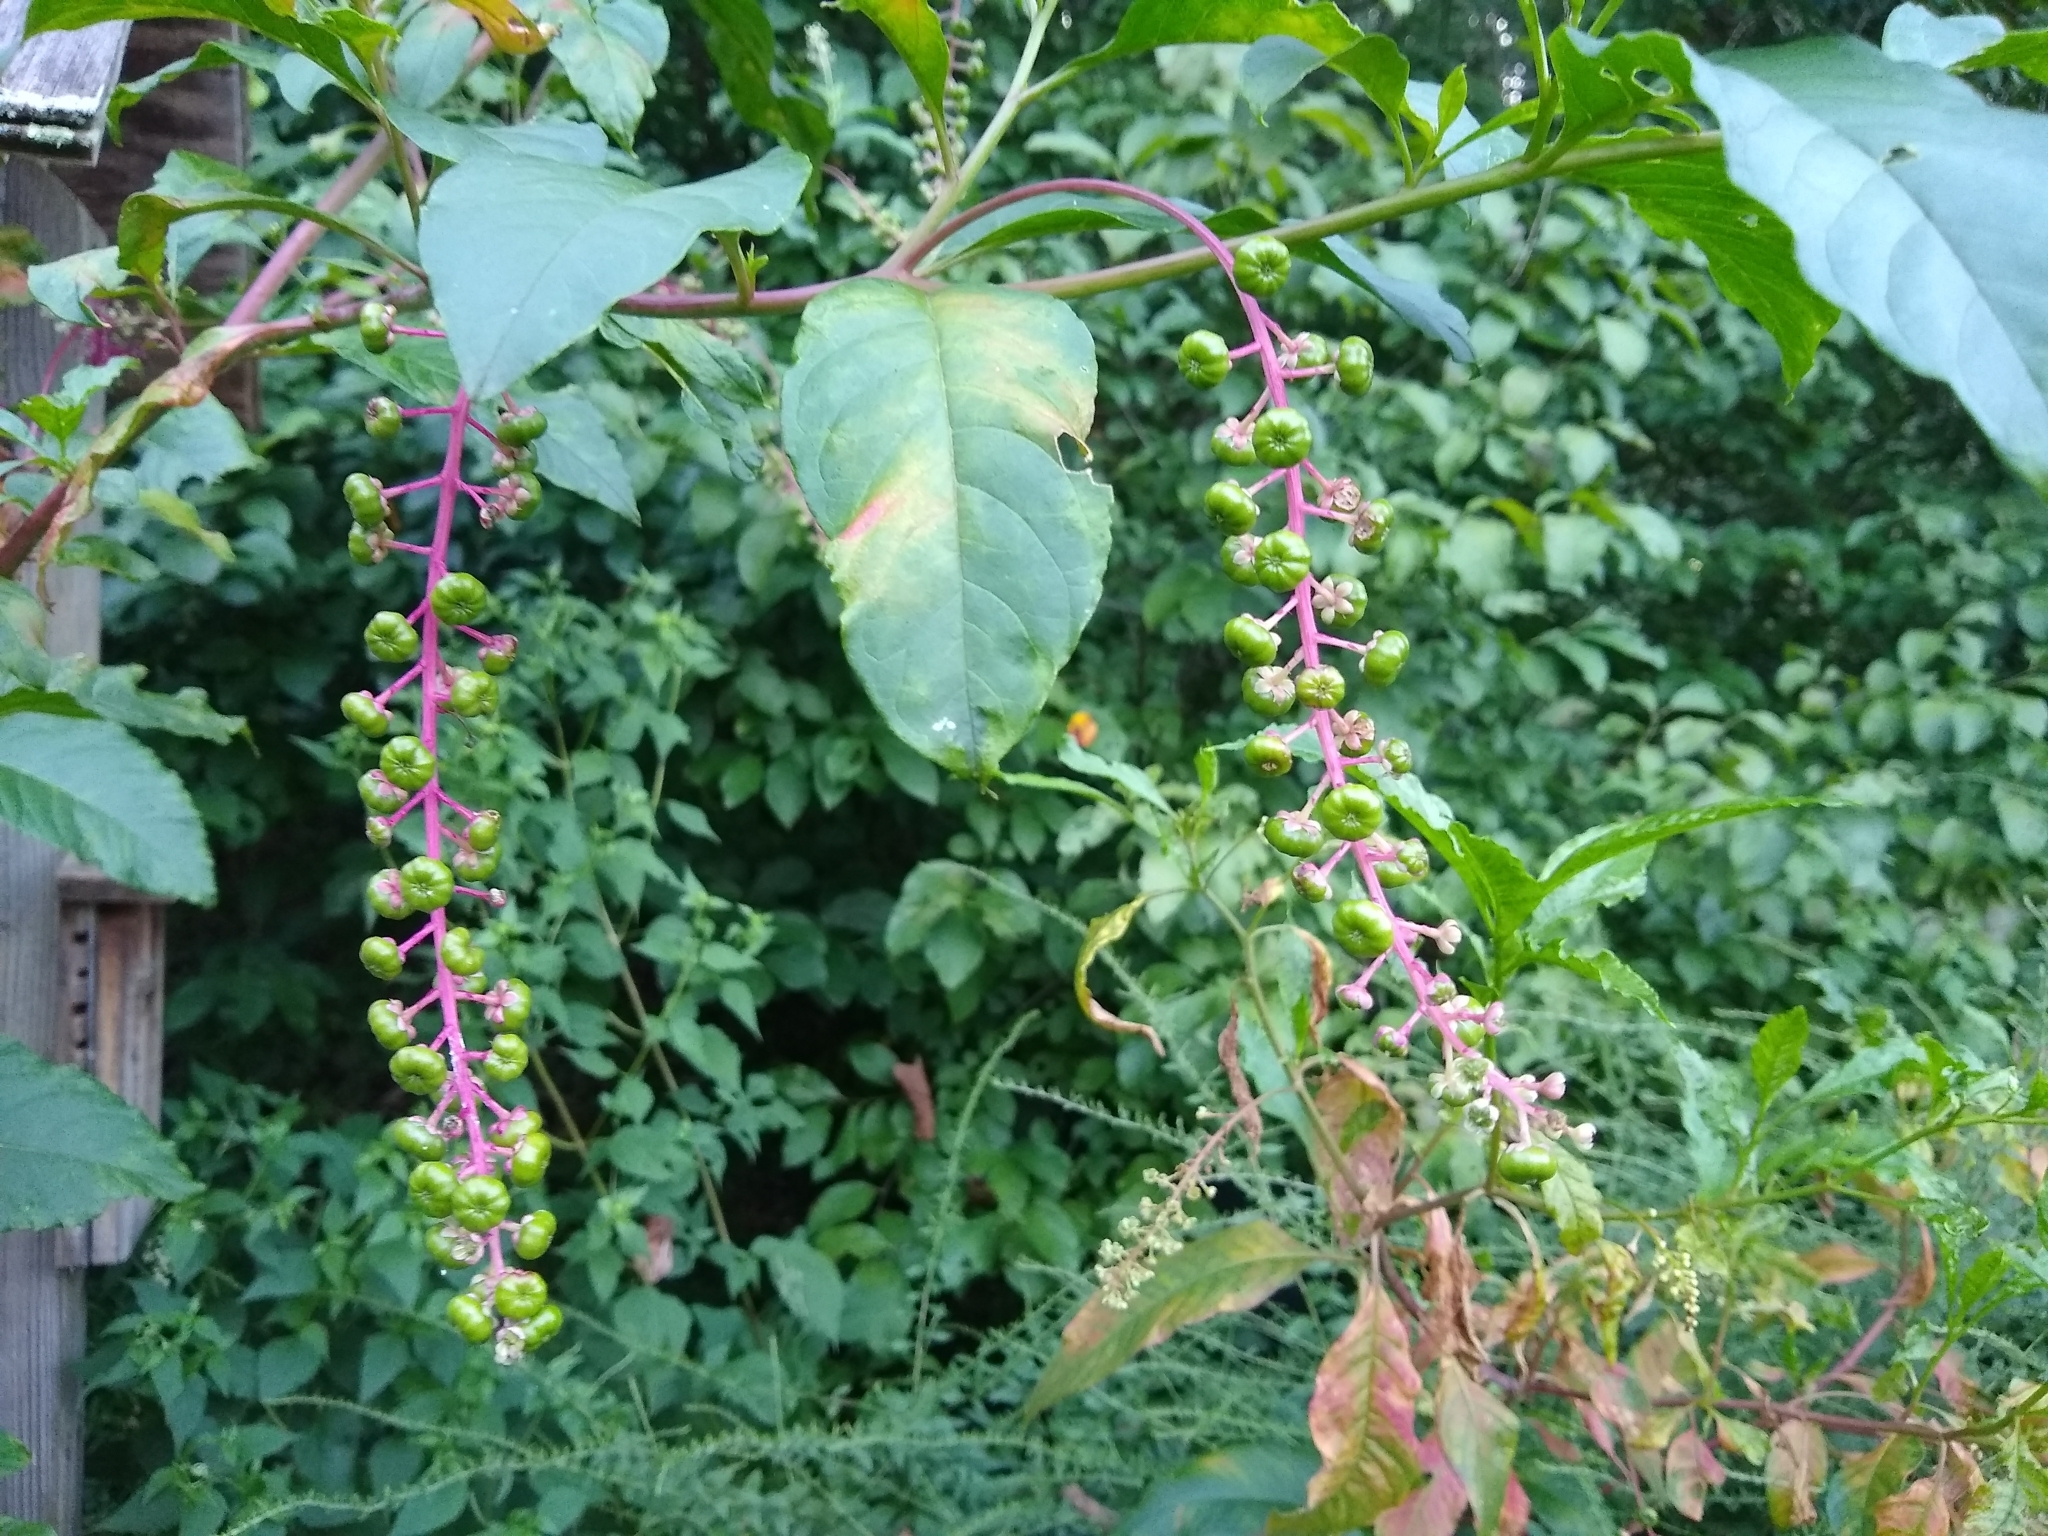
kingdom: Plantae
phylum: Tracheophyta
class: Magnoliopsida
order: Caryophyllales
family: Phytolaccaceae
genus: Phytolacca
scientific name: Phytolacca americana
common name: American pokeweed
